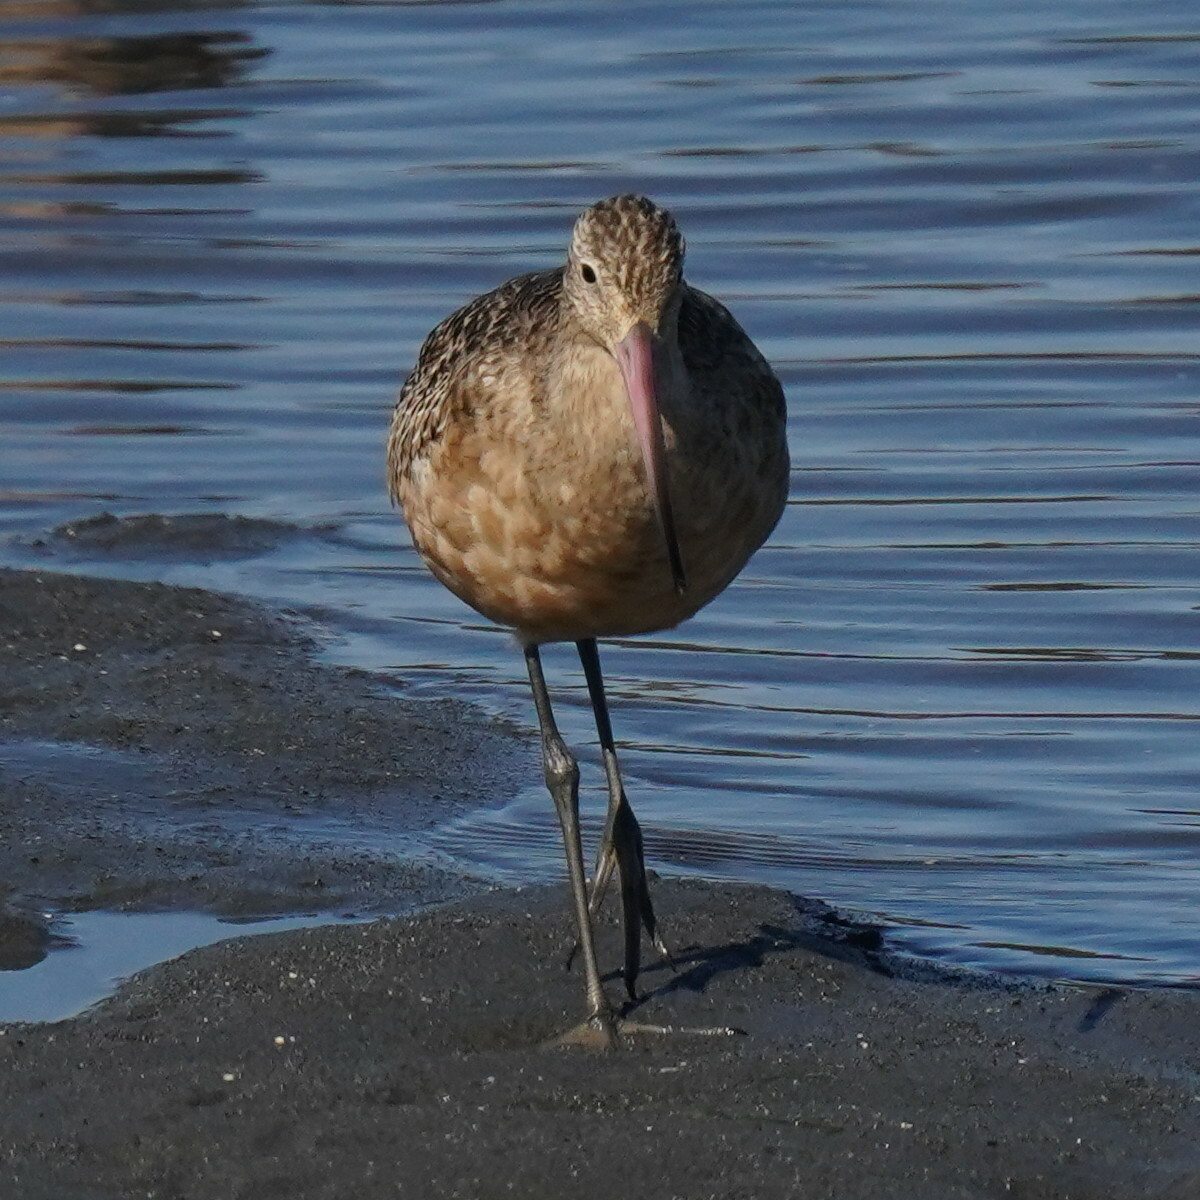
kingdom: Animalia
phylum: Chordata
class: Aves
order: Charadriiformes
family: Scolopacidae
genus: Limosa
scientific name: Limosa fedoa
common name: Marbled godwit
